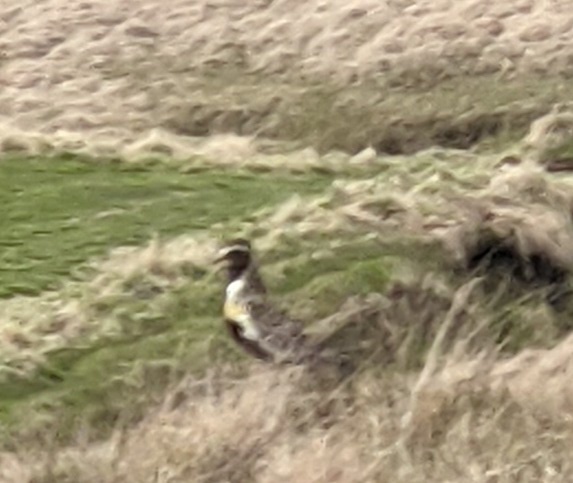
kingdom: Animalia
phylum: Chordata
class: Aves
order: Charadriiformes
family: Charadriidae
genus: Pluvialis
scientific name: Pluvialis apricaria
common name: European golden plover
